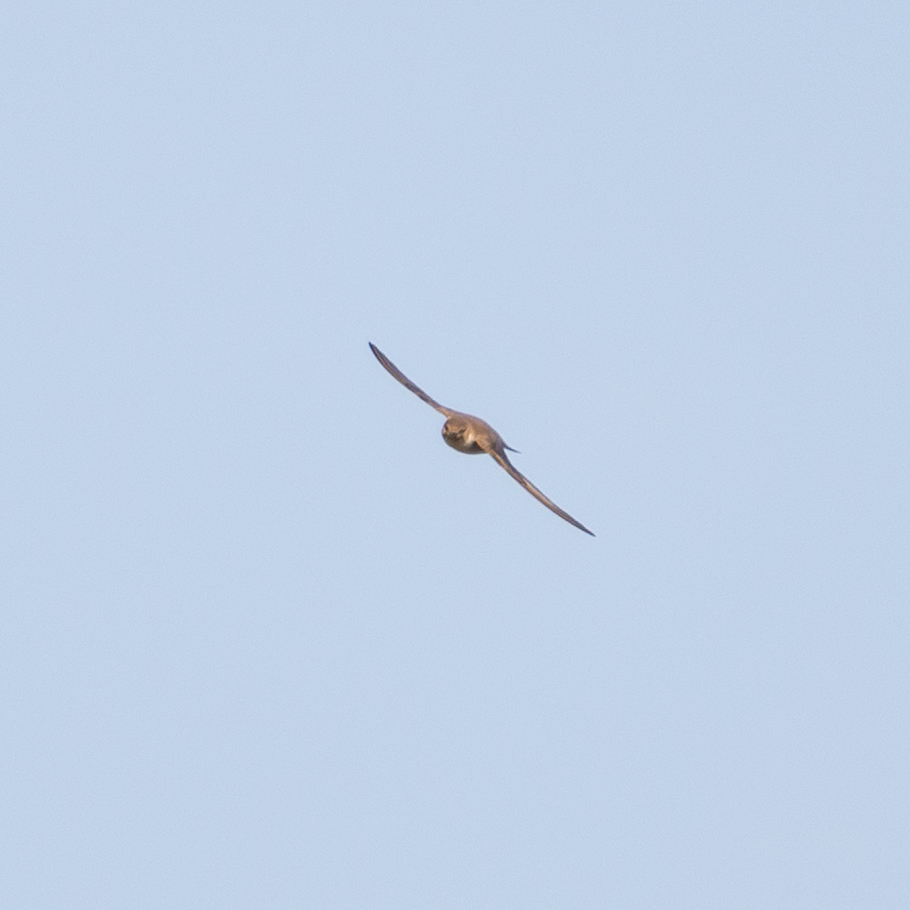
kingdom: Animalia
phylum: Chordata
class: Aves
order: Passeriformes
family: Hirundinidae
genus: Ptyonoprogne
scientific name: Ptyonoprogne rupestris
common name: Eurasian crag martin
